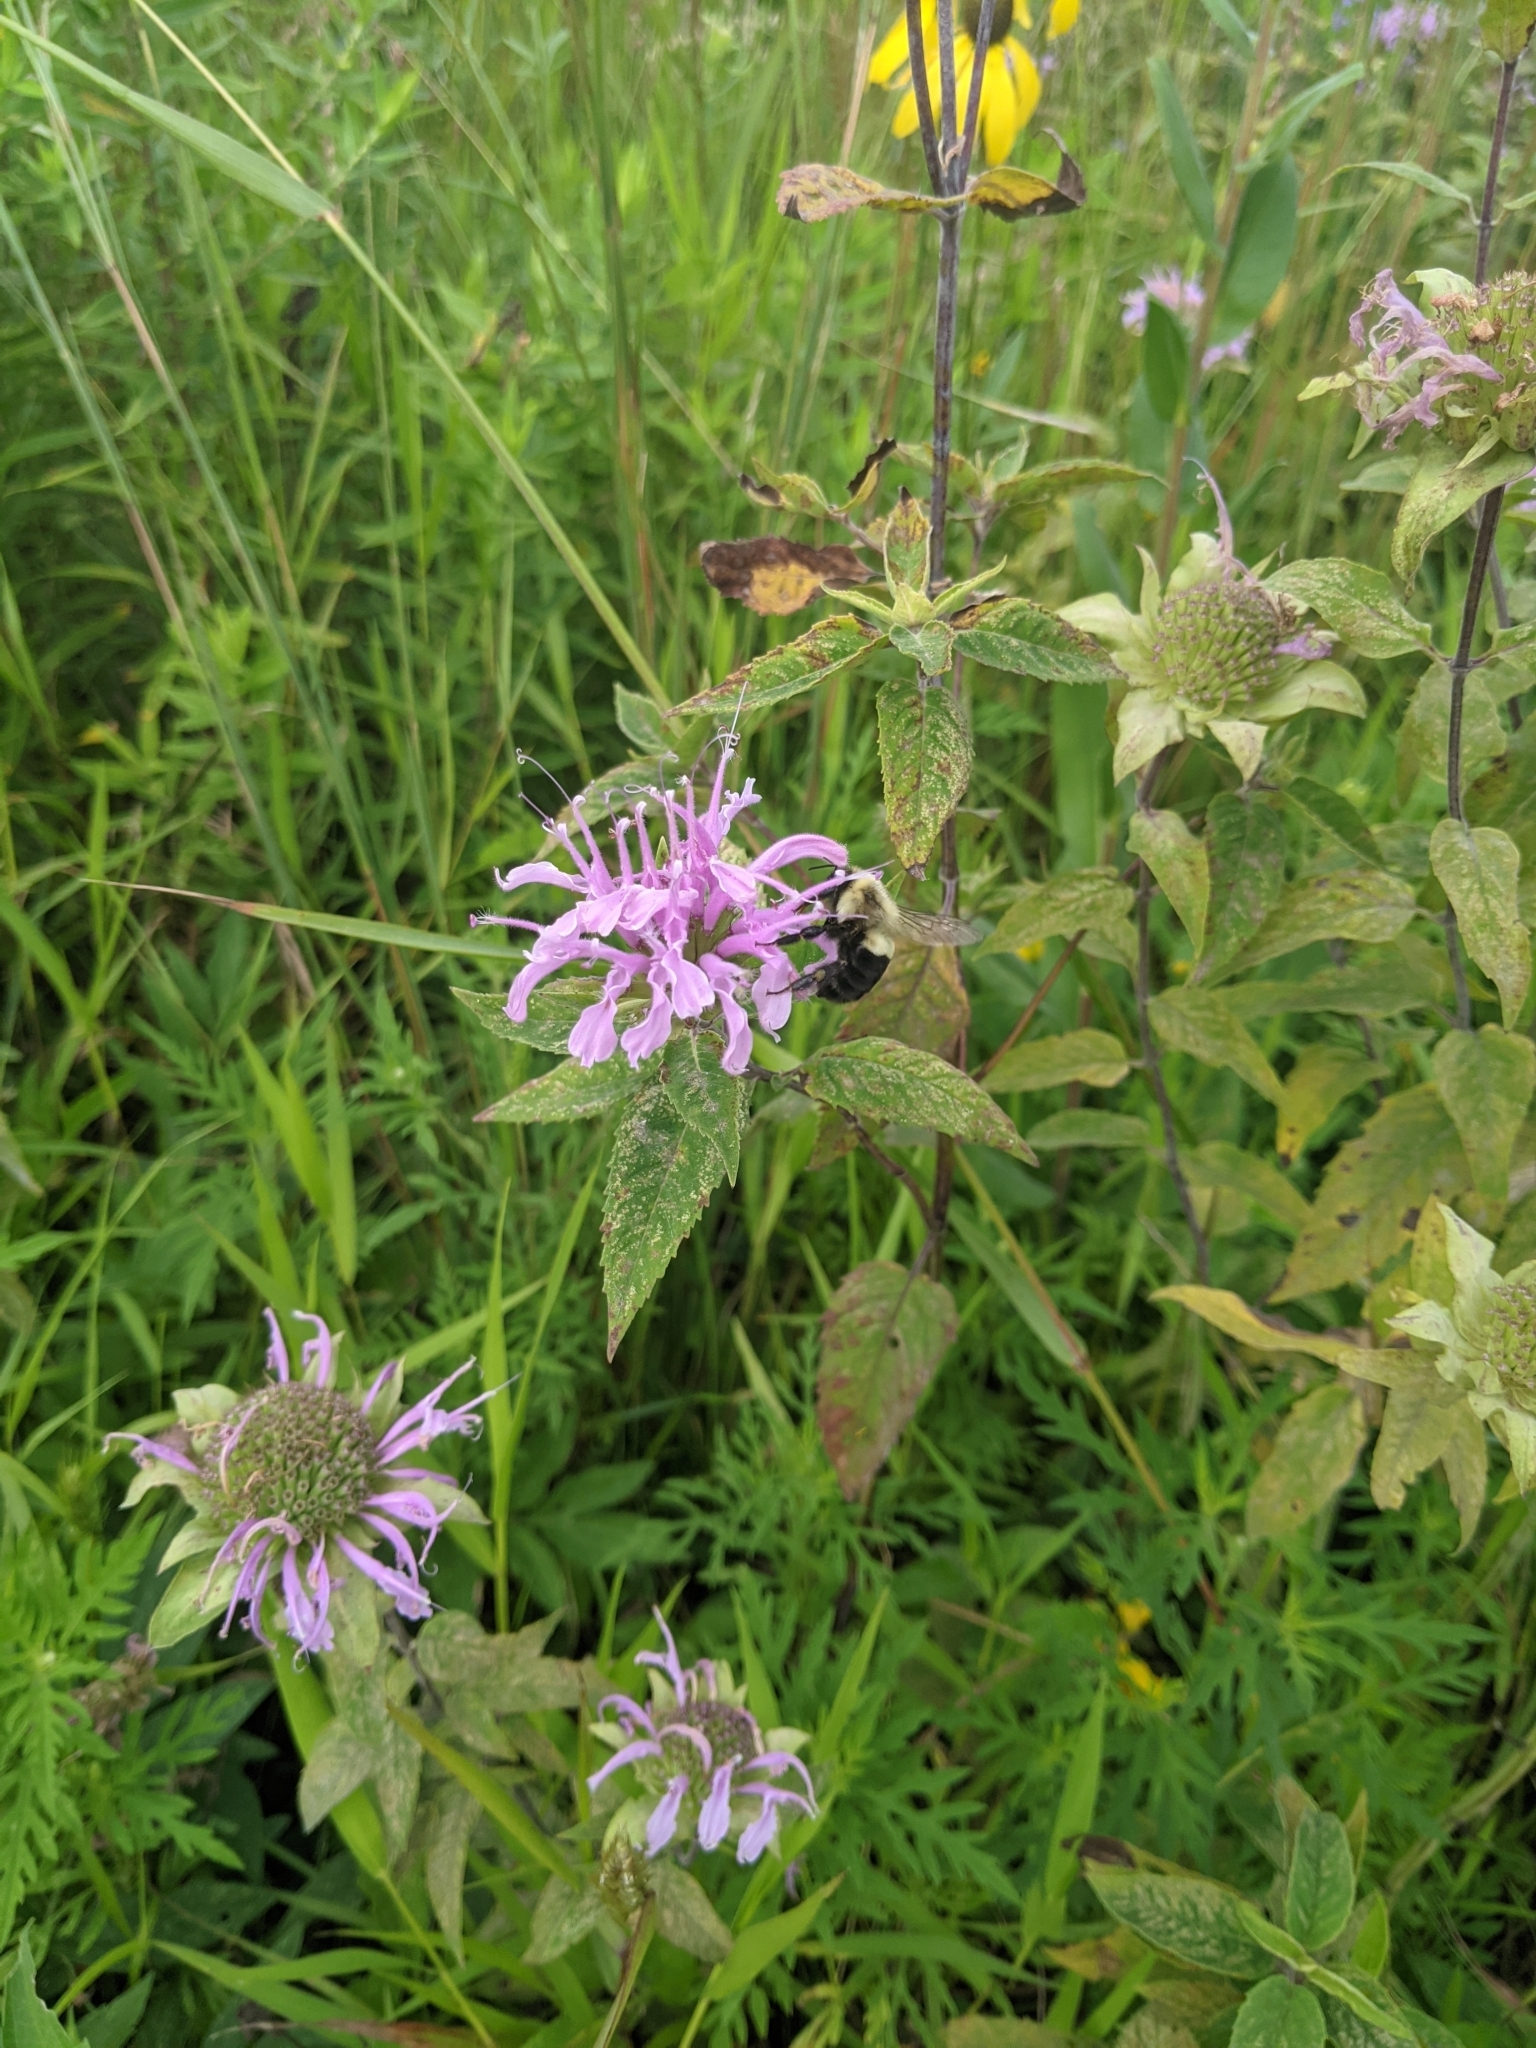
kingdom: Animalia
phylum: Arthropoda
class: Insecta
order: Hymenoptera
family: Apidae
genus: Bombus
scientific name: Bombus impatiens
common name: Common eastern bumble bee
